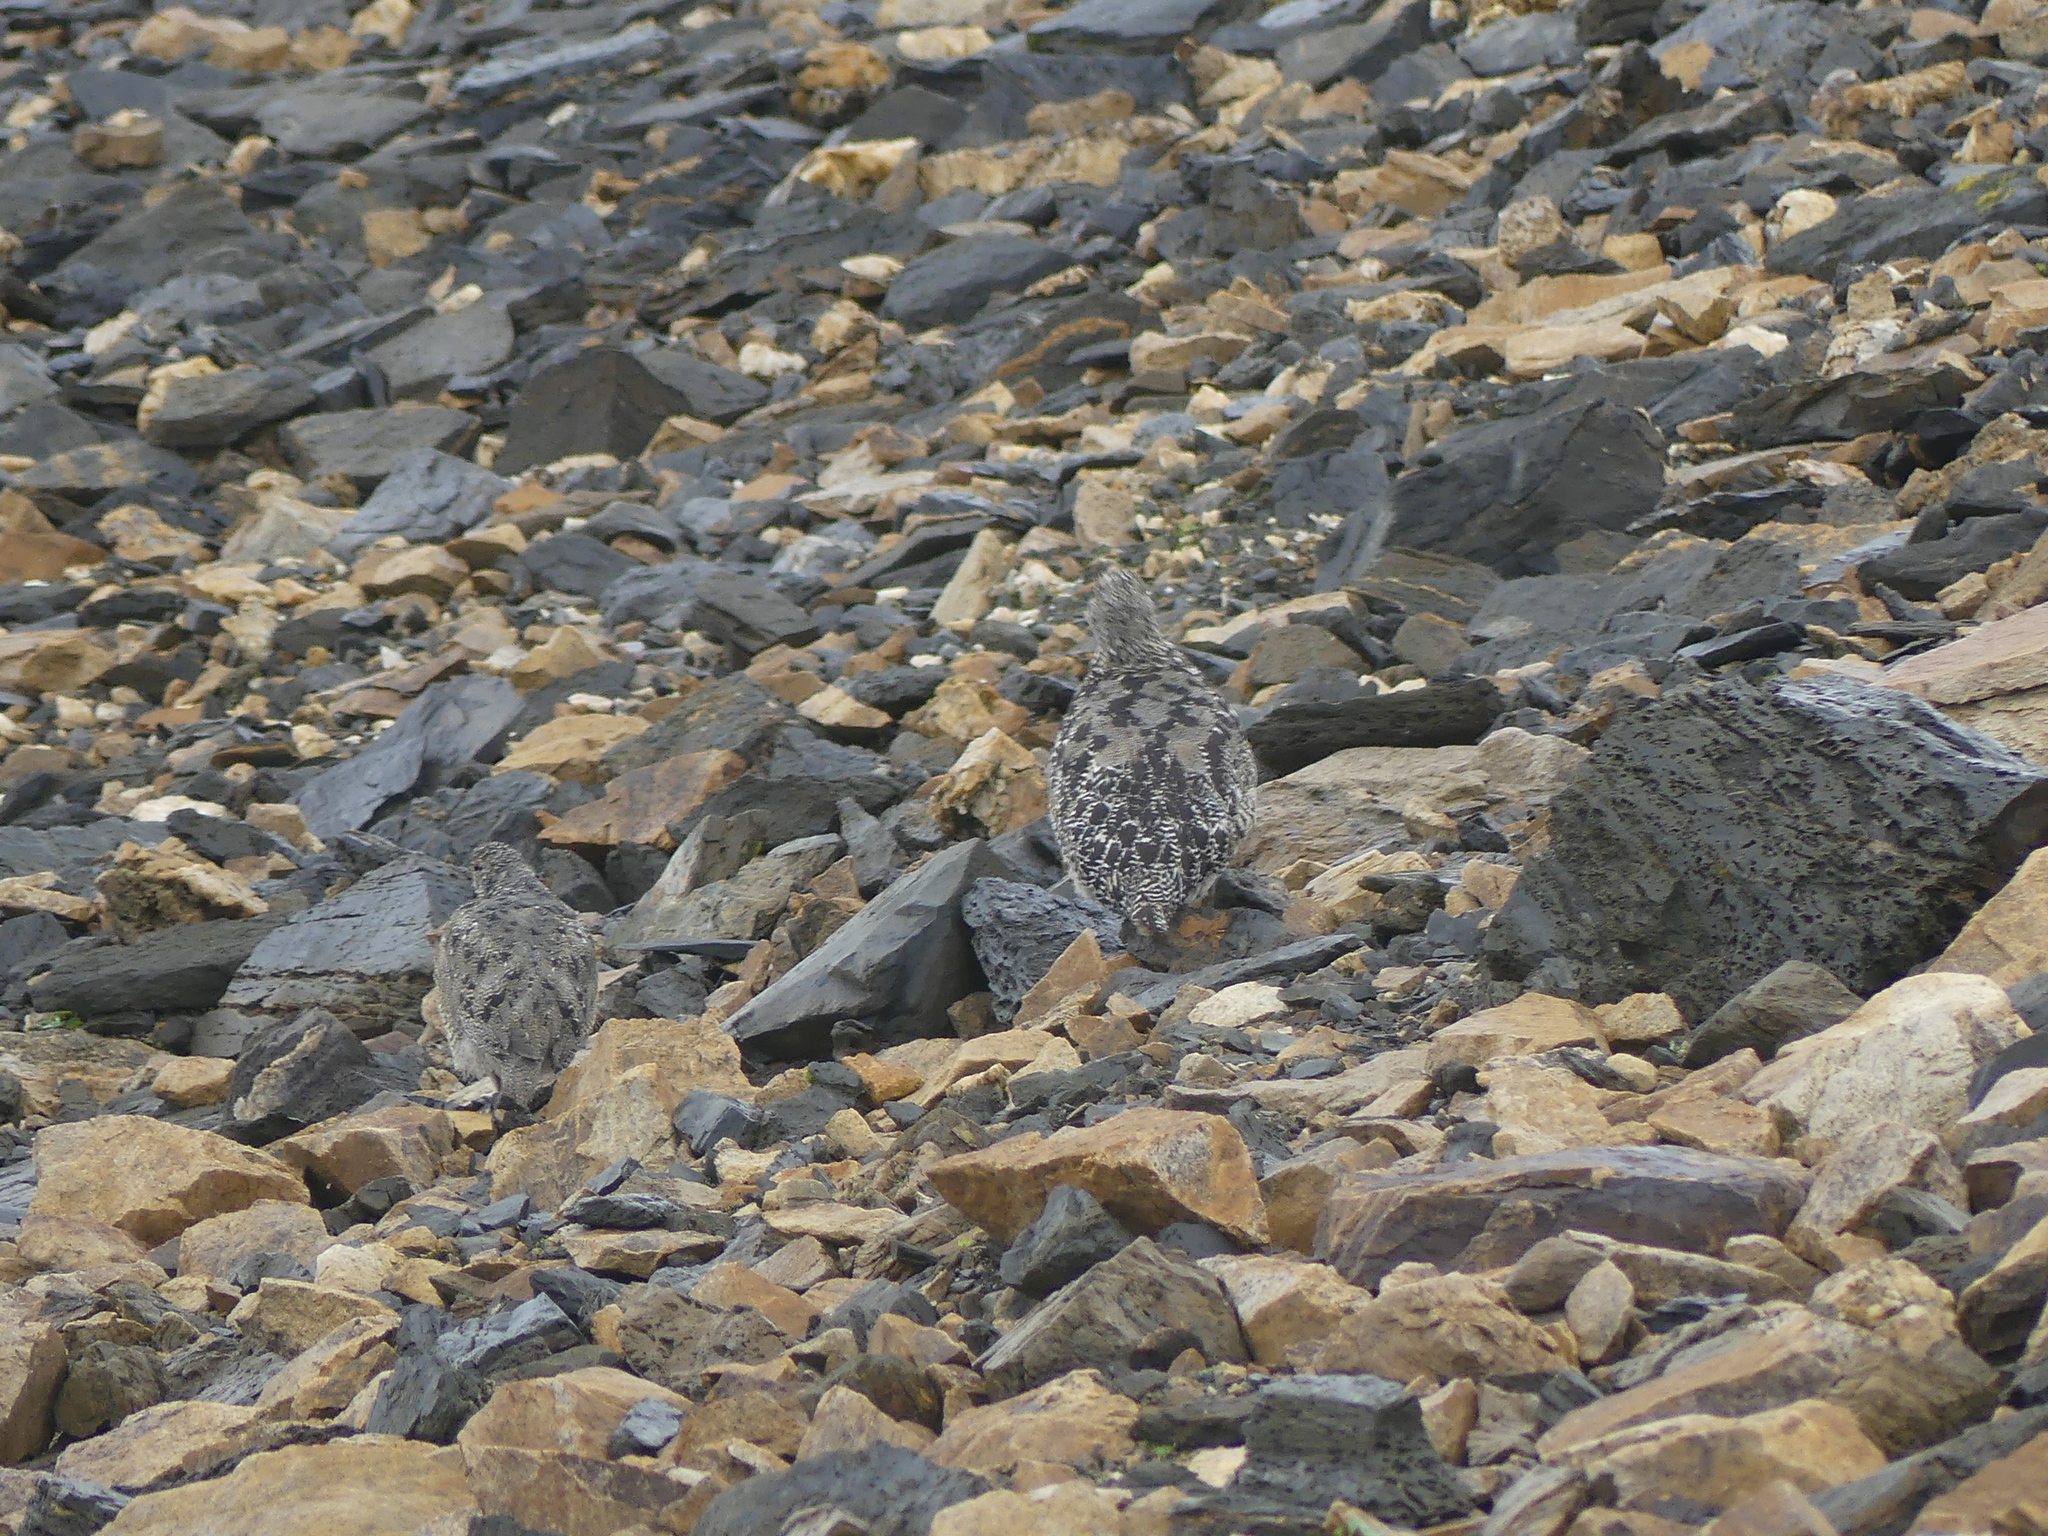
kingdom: Animalia
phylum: Chordata
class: Aves
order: Galliformes
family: Phasianidae
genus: Lagopus
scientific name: Lagopus leucura
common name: White-tailed ptarmigan
